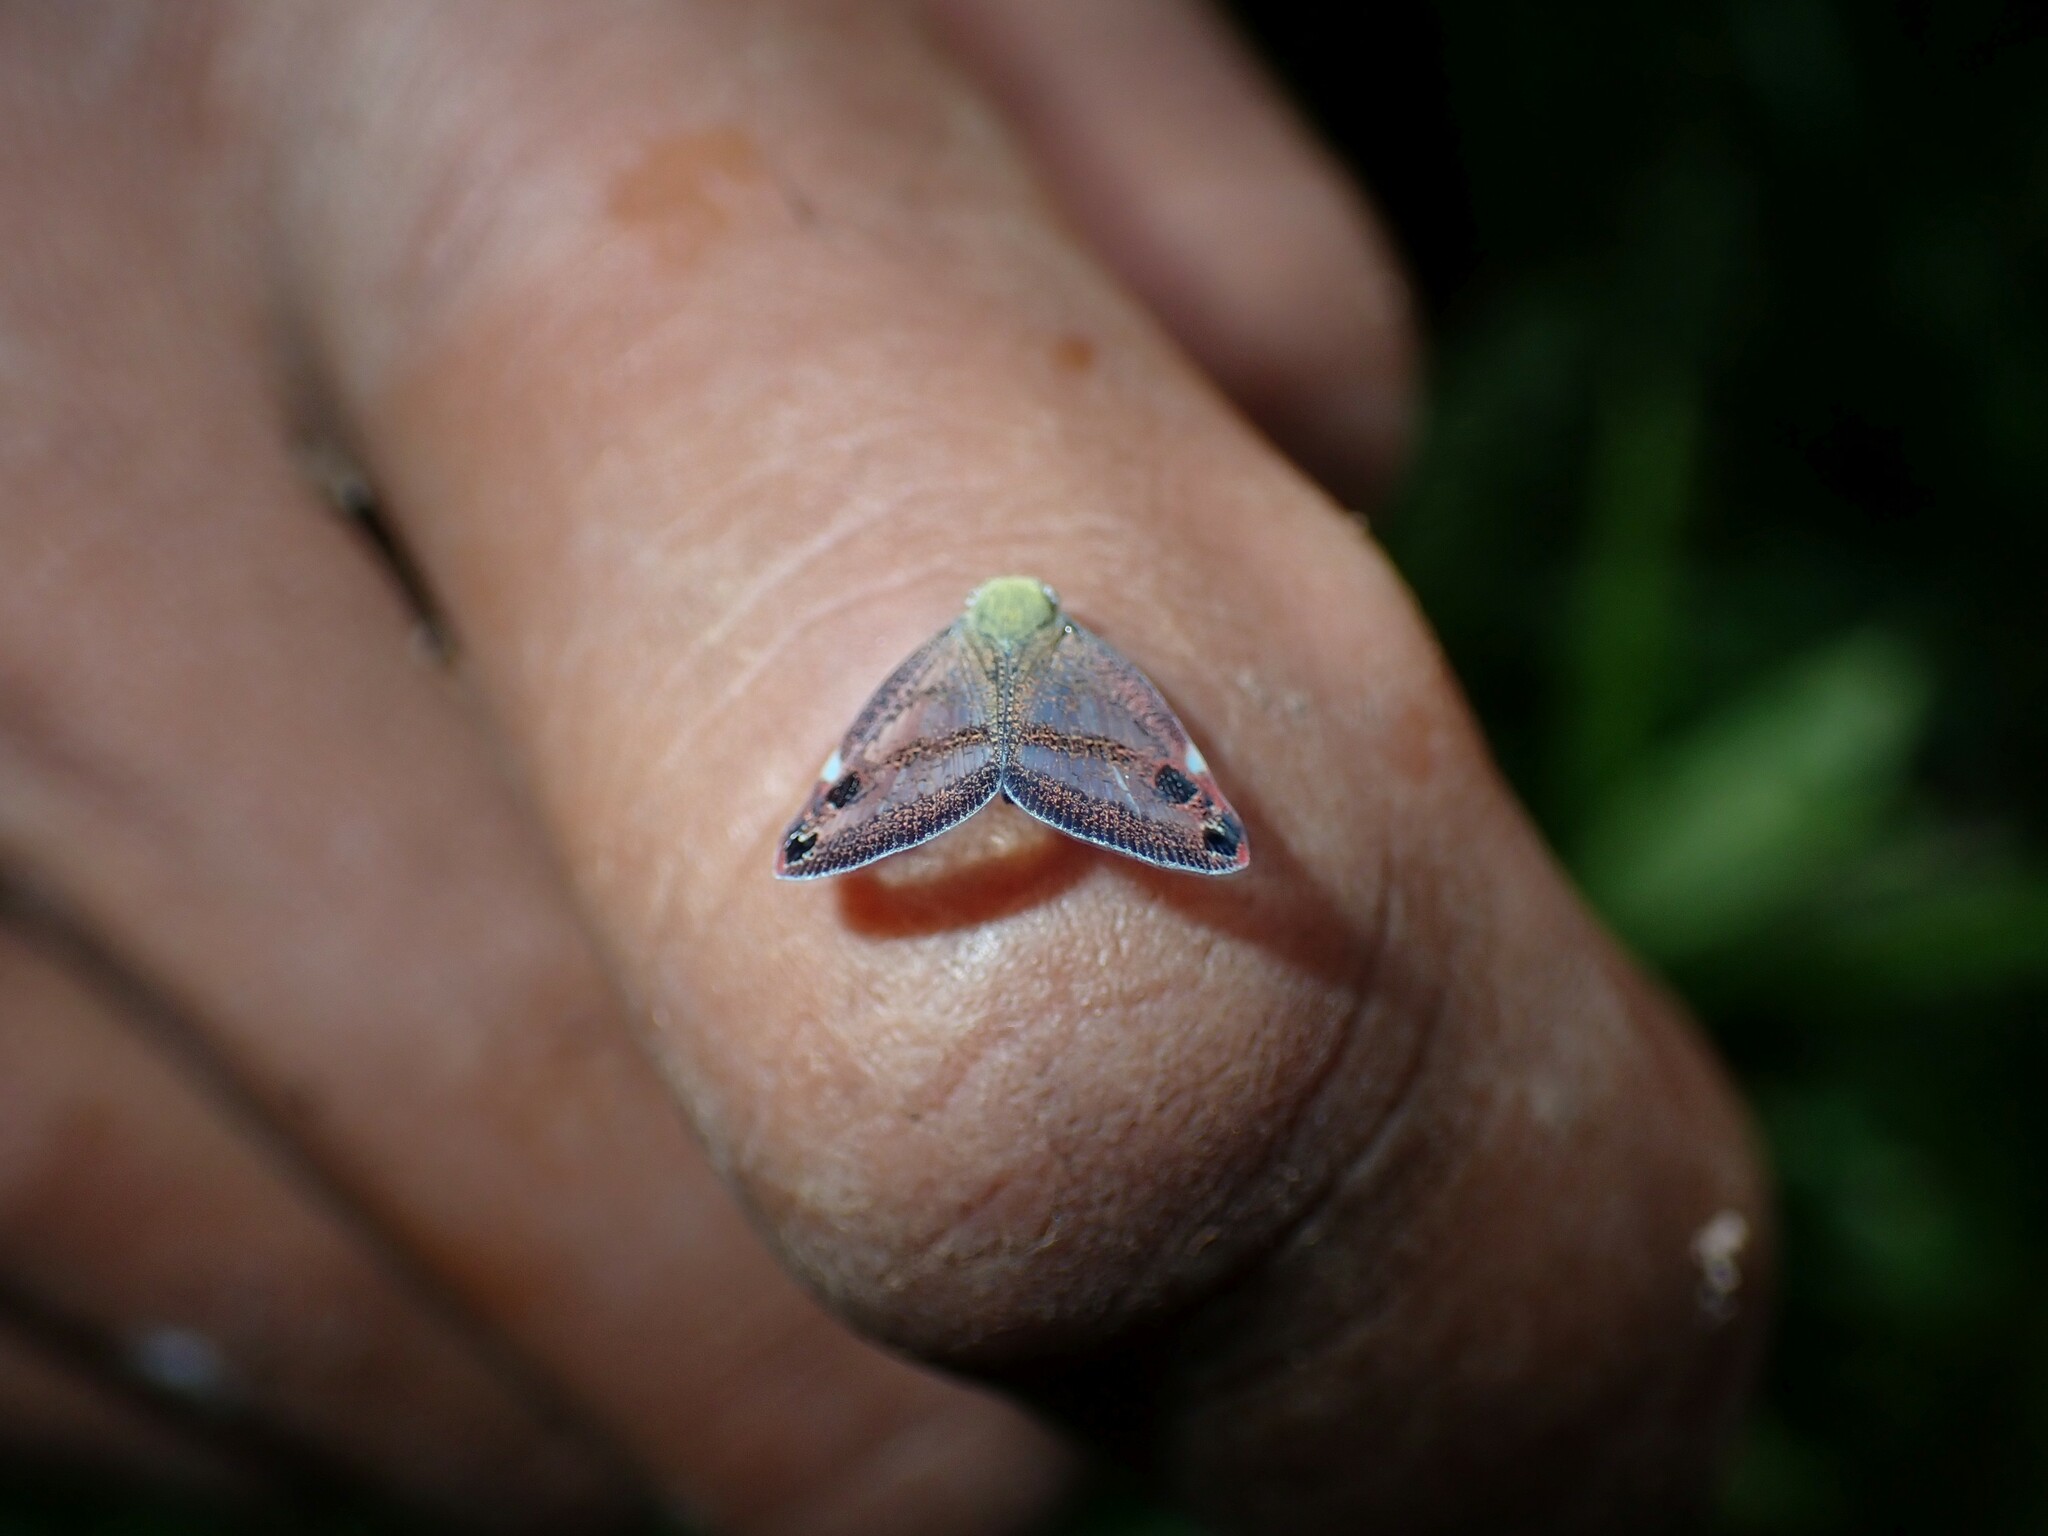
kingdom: Animalia
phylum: Arthropoda
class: Insecta
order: Hemiptera
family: Ricaniidae
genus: Parapiromis
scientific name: Parapiromis translucida
